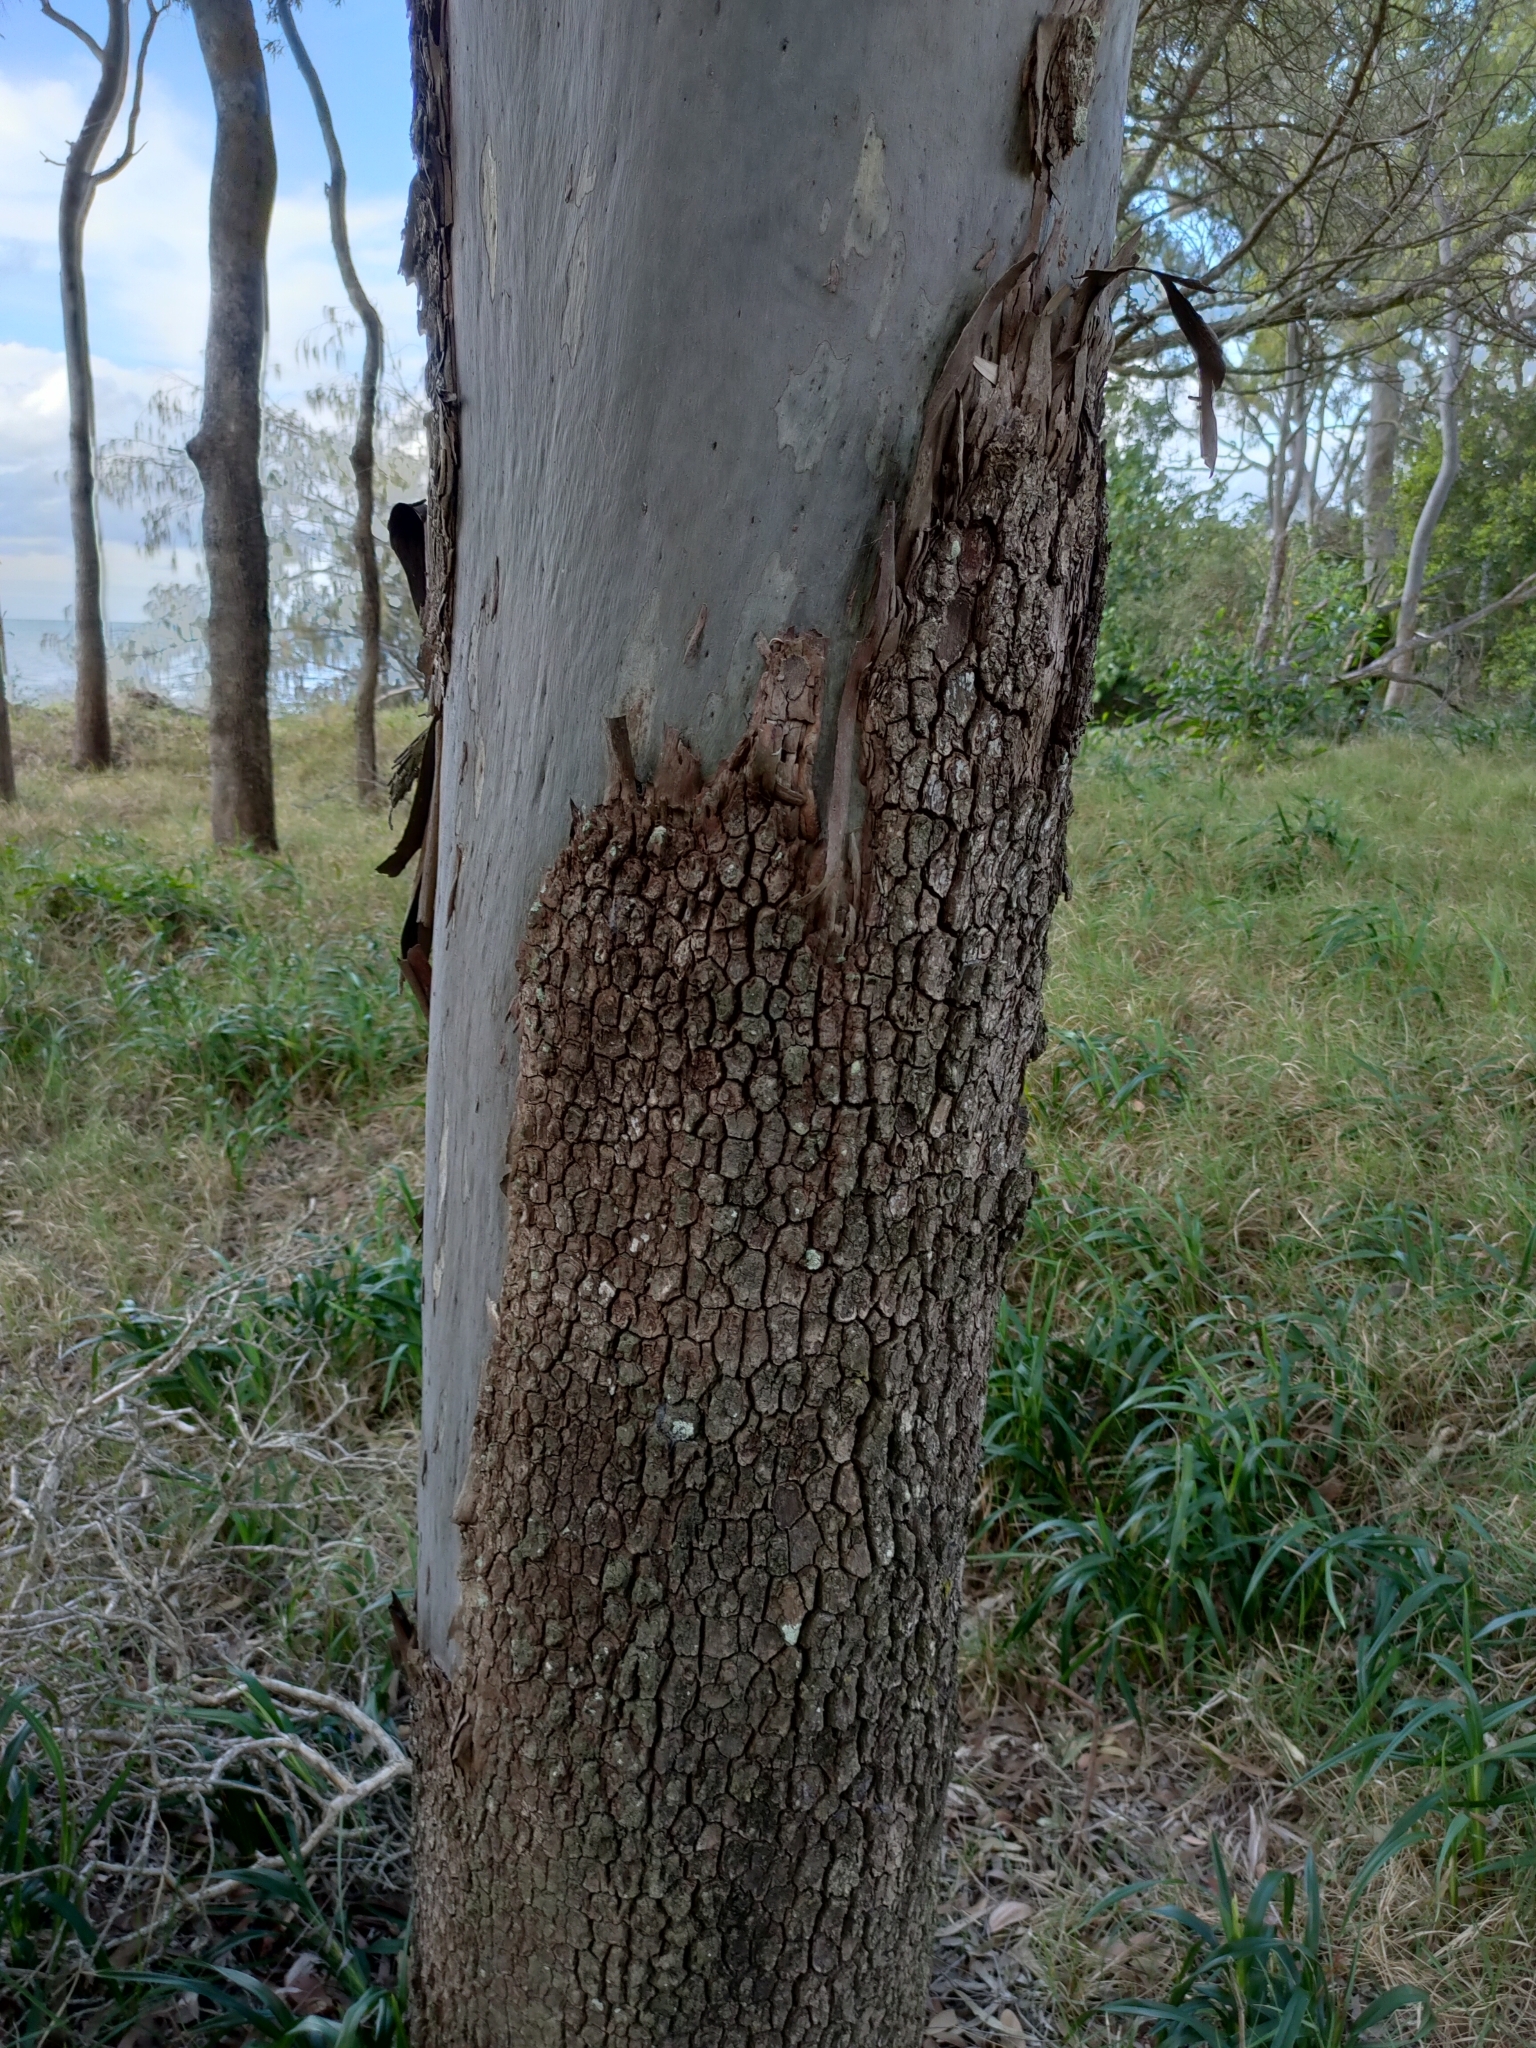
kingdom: Plantae
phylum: Tracheophyta
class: Magnoliopsida
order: Myrtales
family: Myrtaceae
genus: Corymbia
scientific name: Corymbia tessellaris
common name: Carbeen
